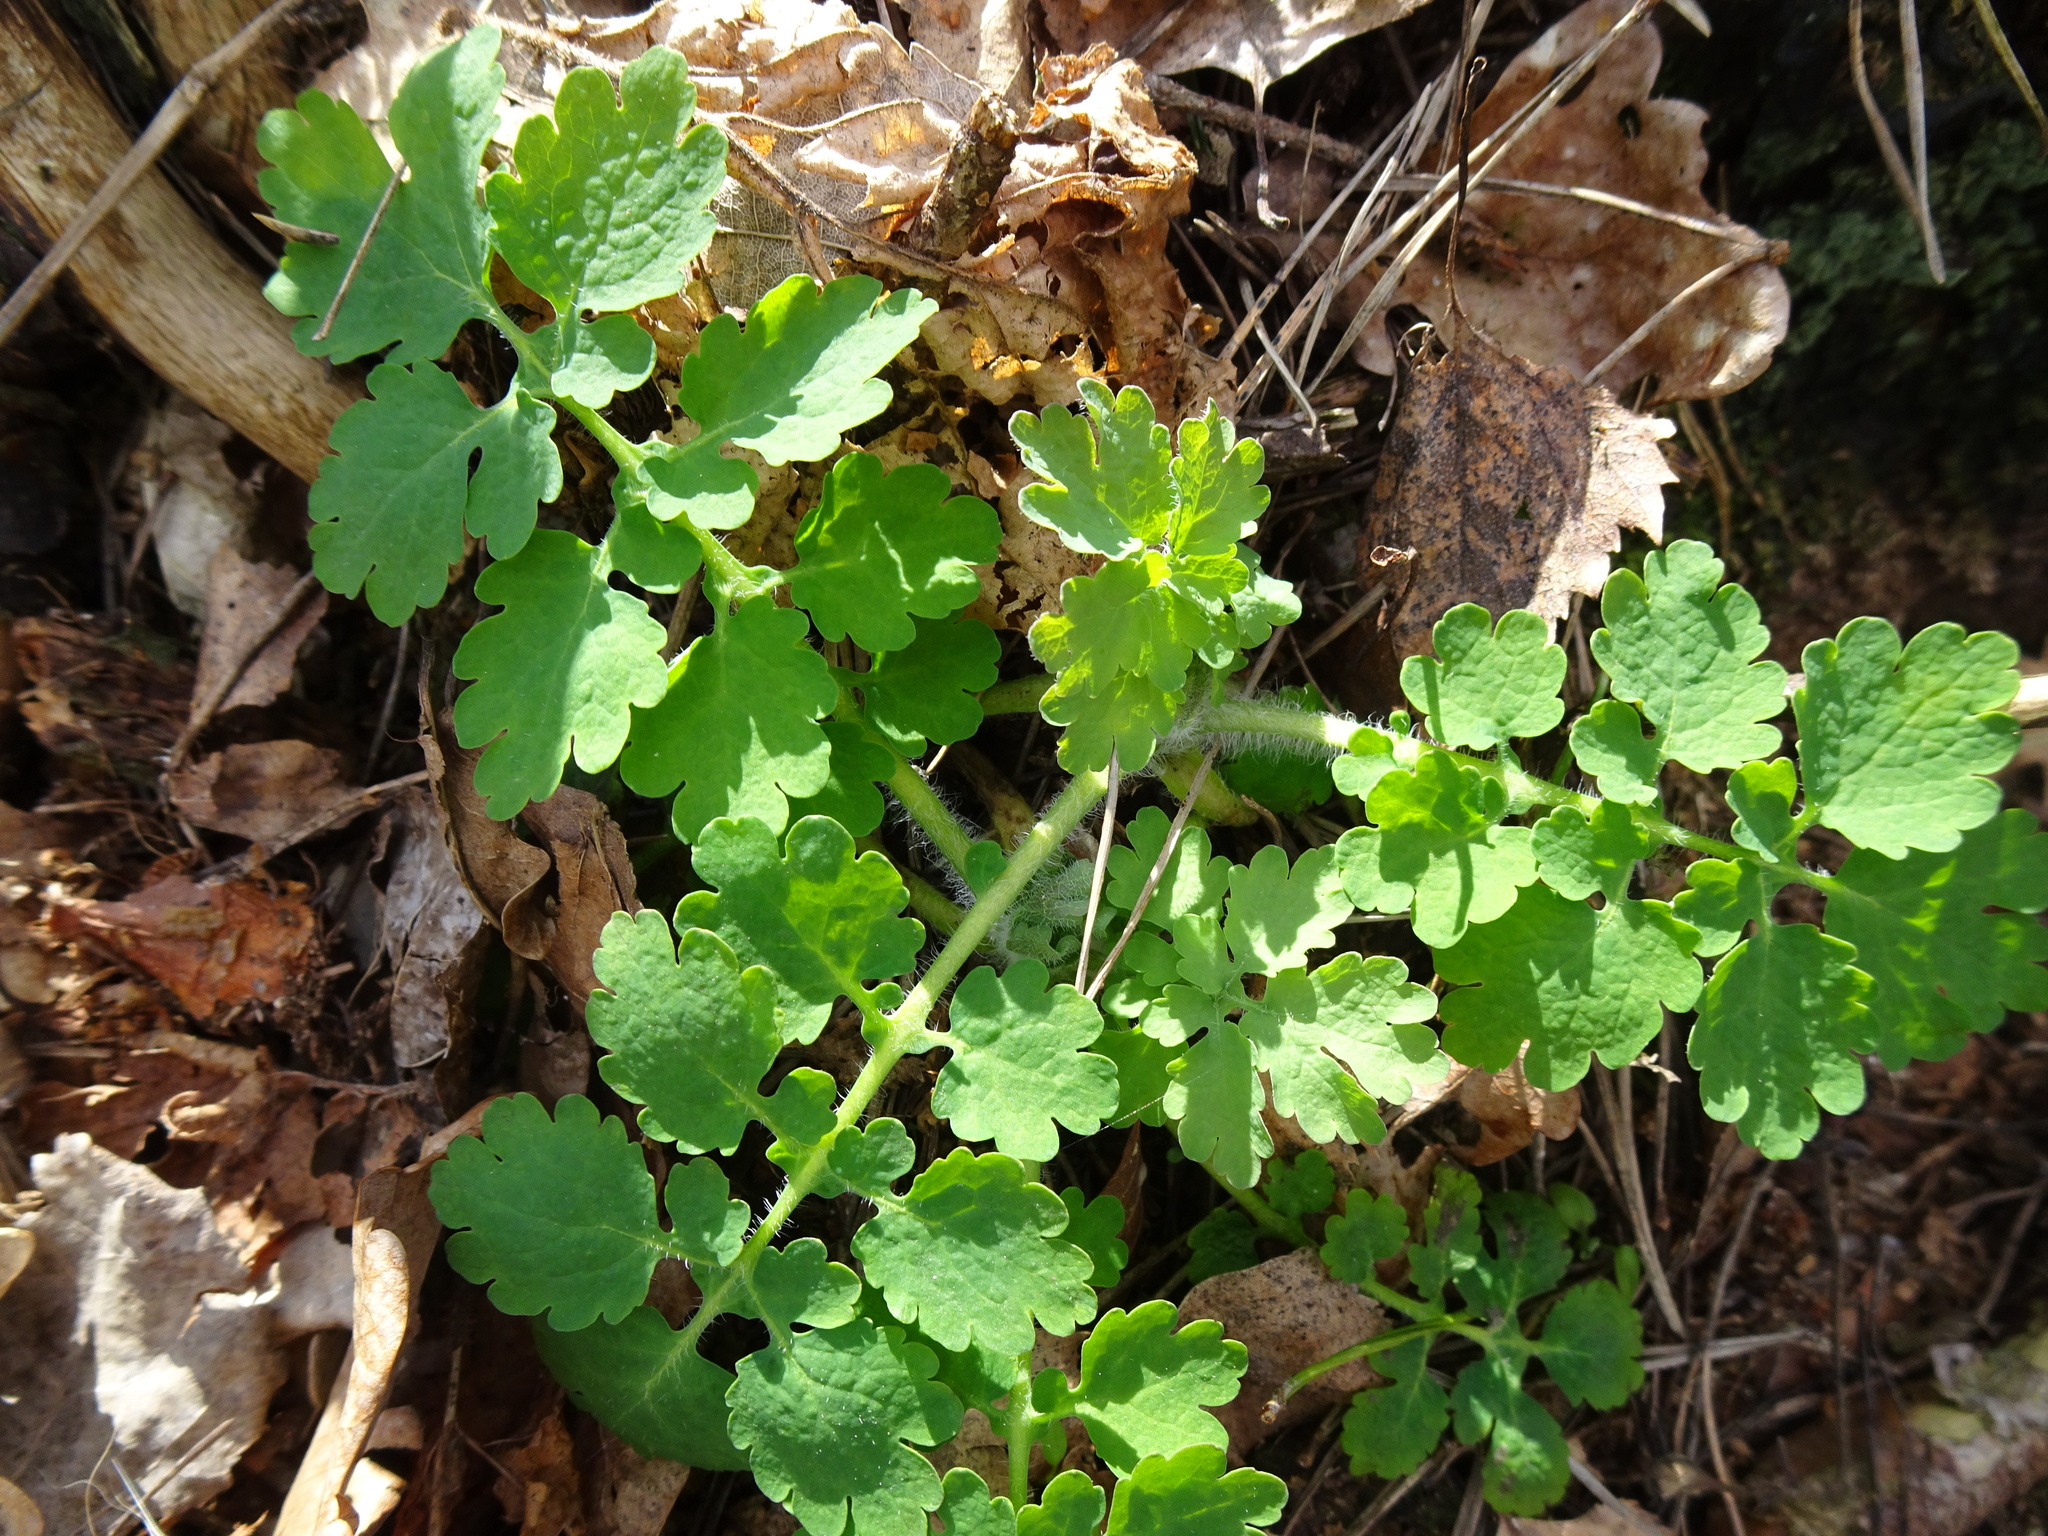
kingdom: Plantae
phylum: Tracheophyta
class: Magnoliopsida
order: Ranunculales
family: Papaveraceae
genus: Chelidonium
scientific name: Chelidonium majus
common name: Greater celandine
